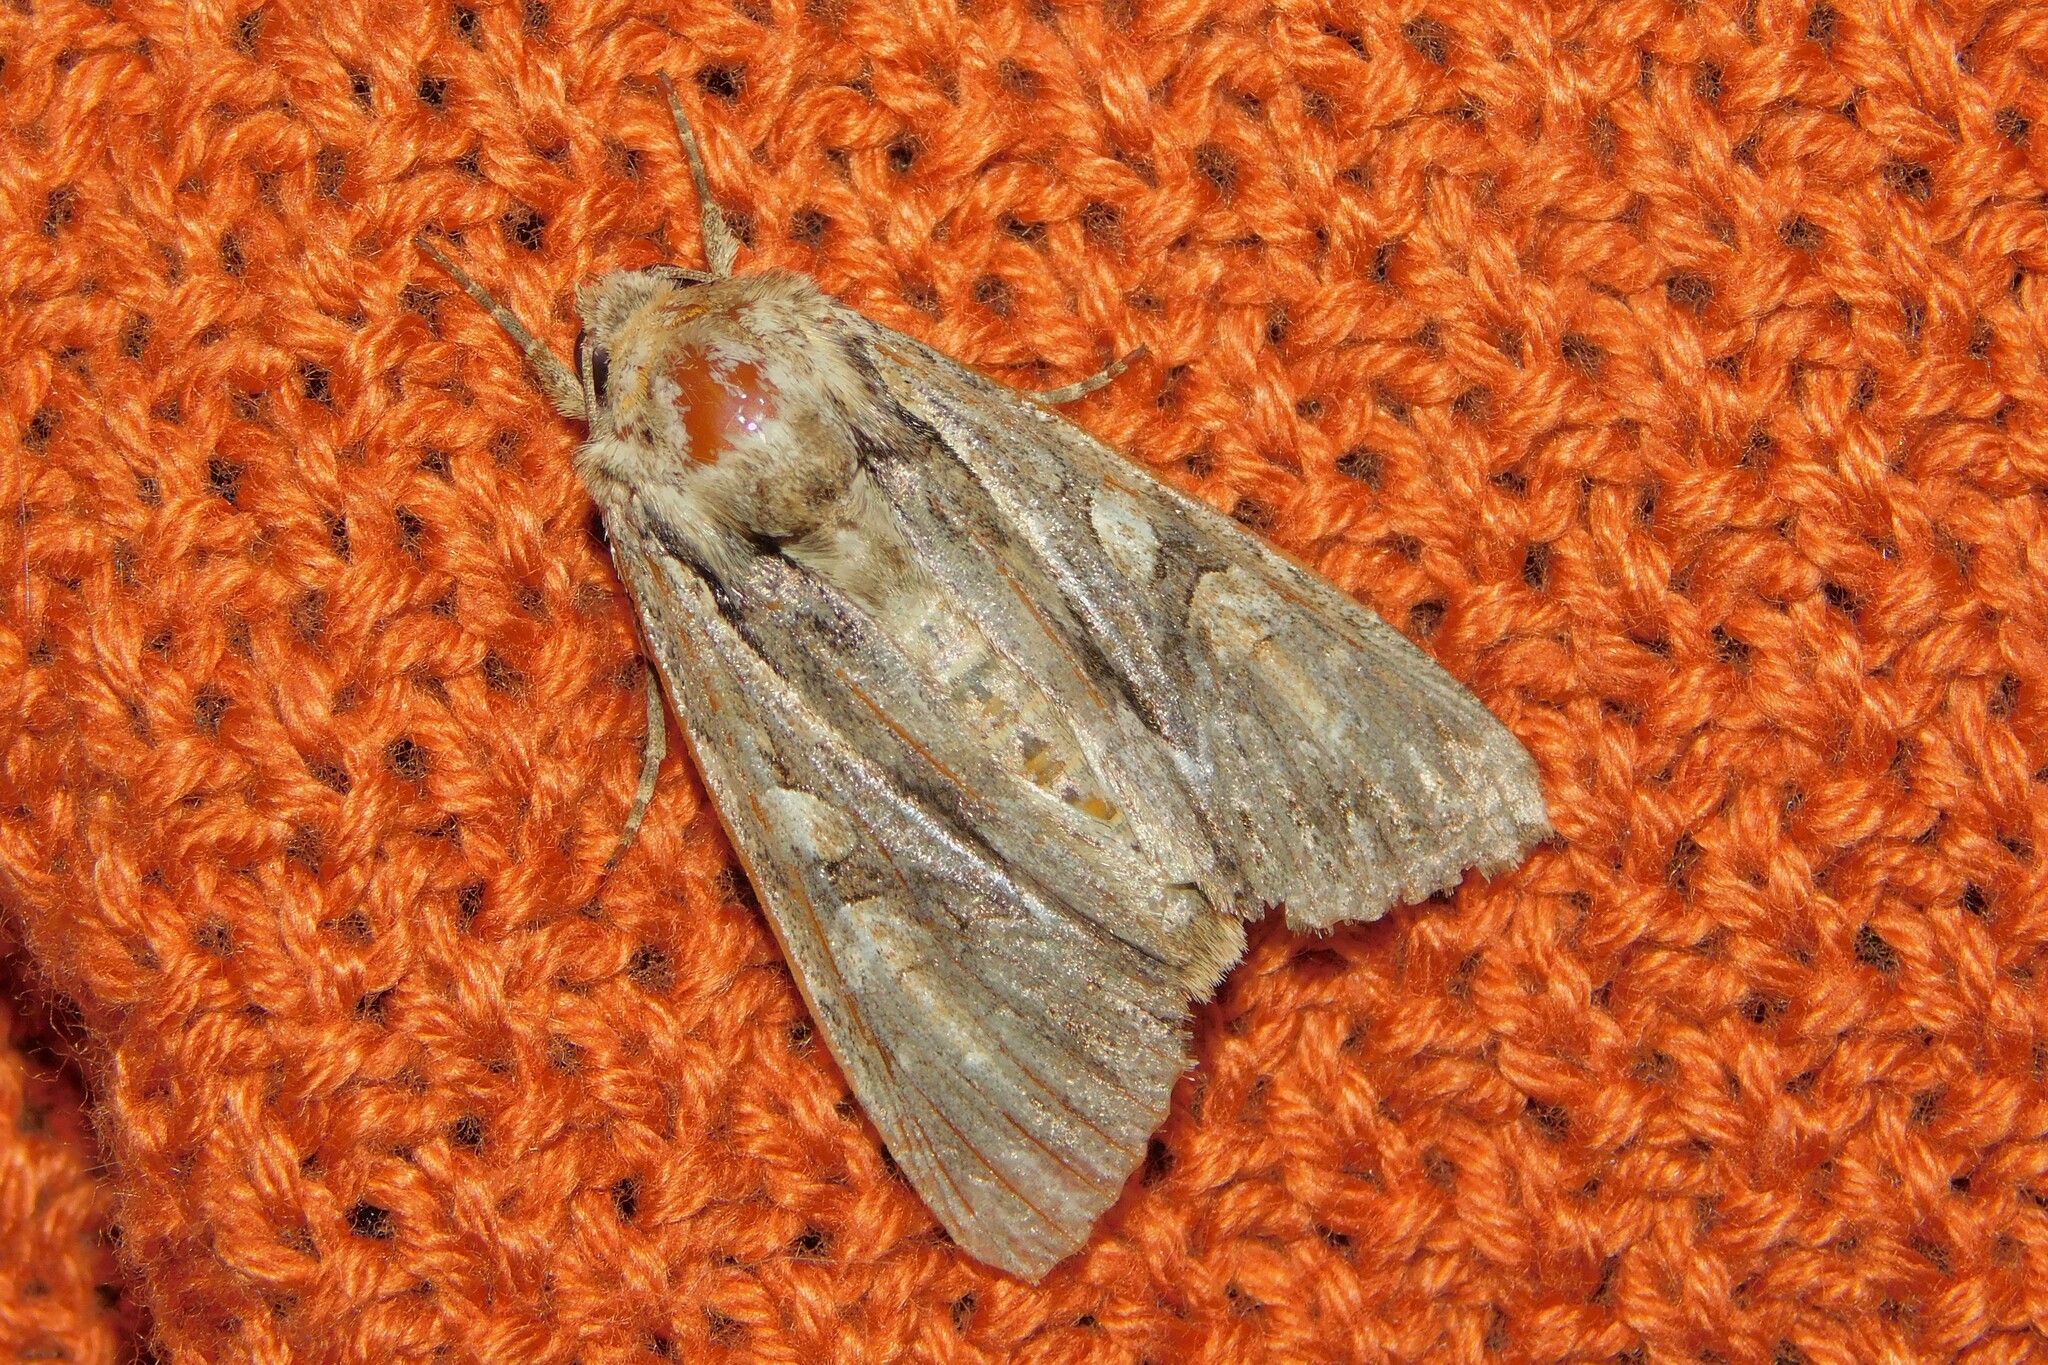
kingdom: Animalia
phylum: Arthropoda
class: Insecta
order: Lepidoptera
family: Noctuidae
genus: Apamea
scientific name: Apamea monoglypha
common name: Dark arches
